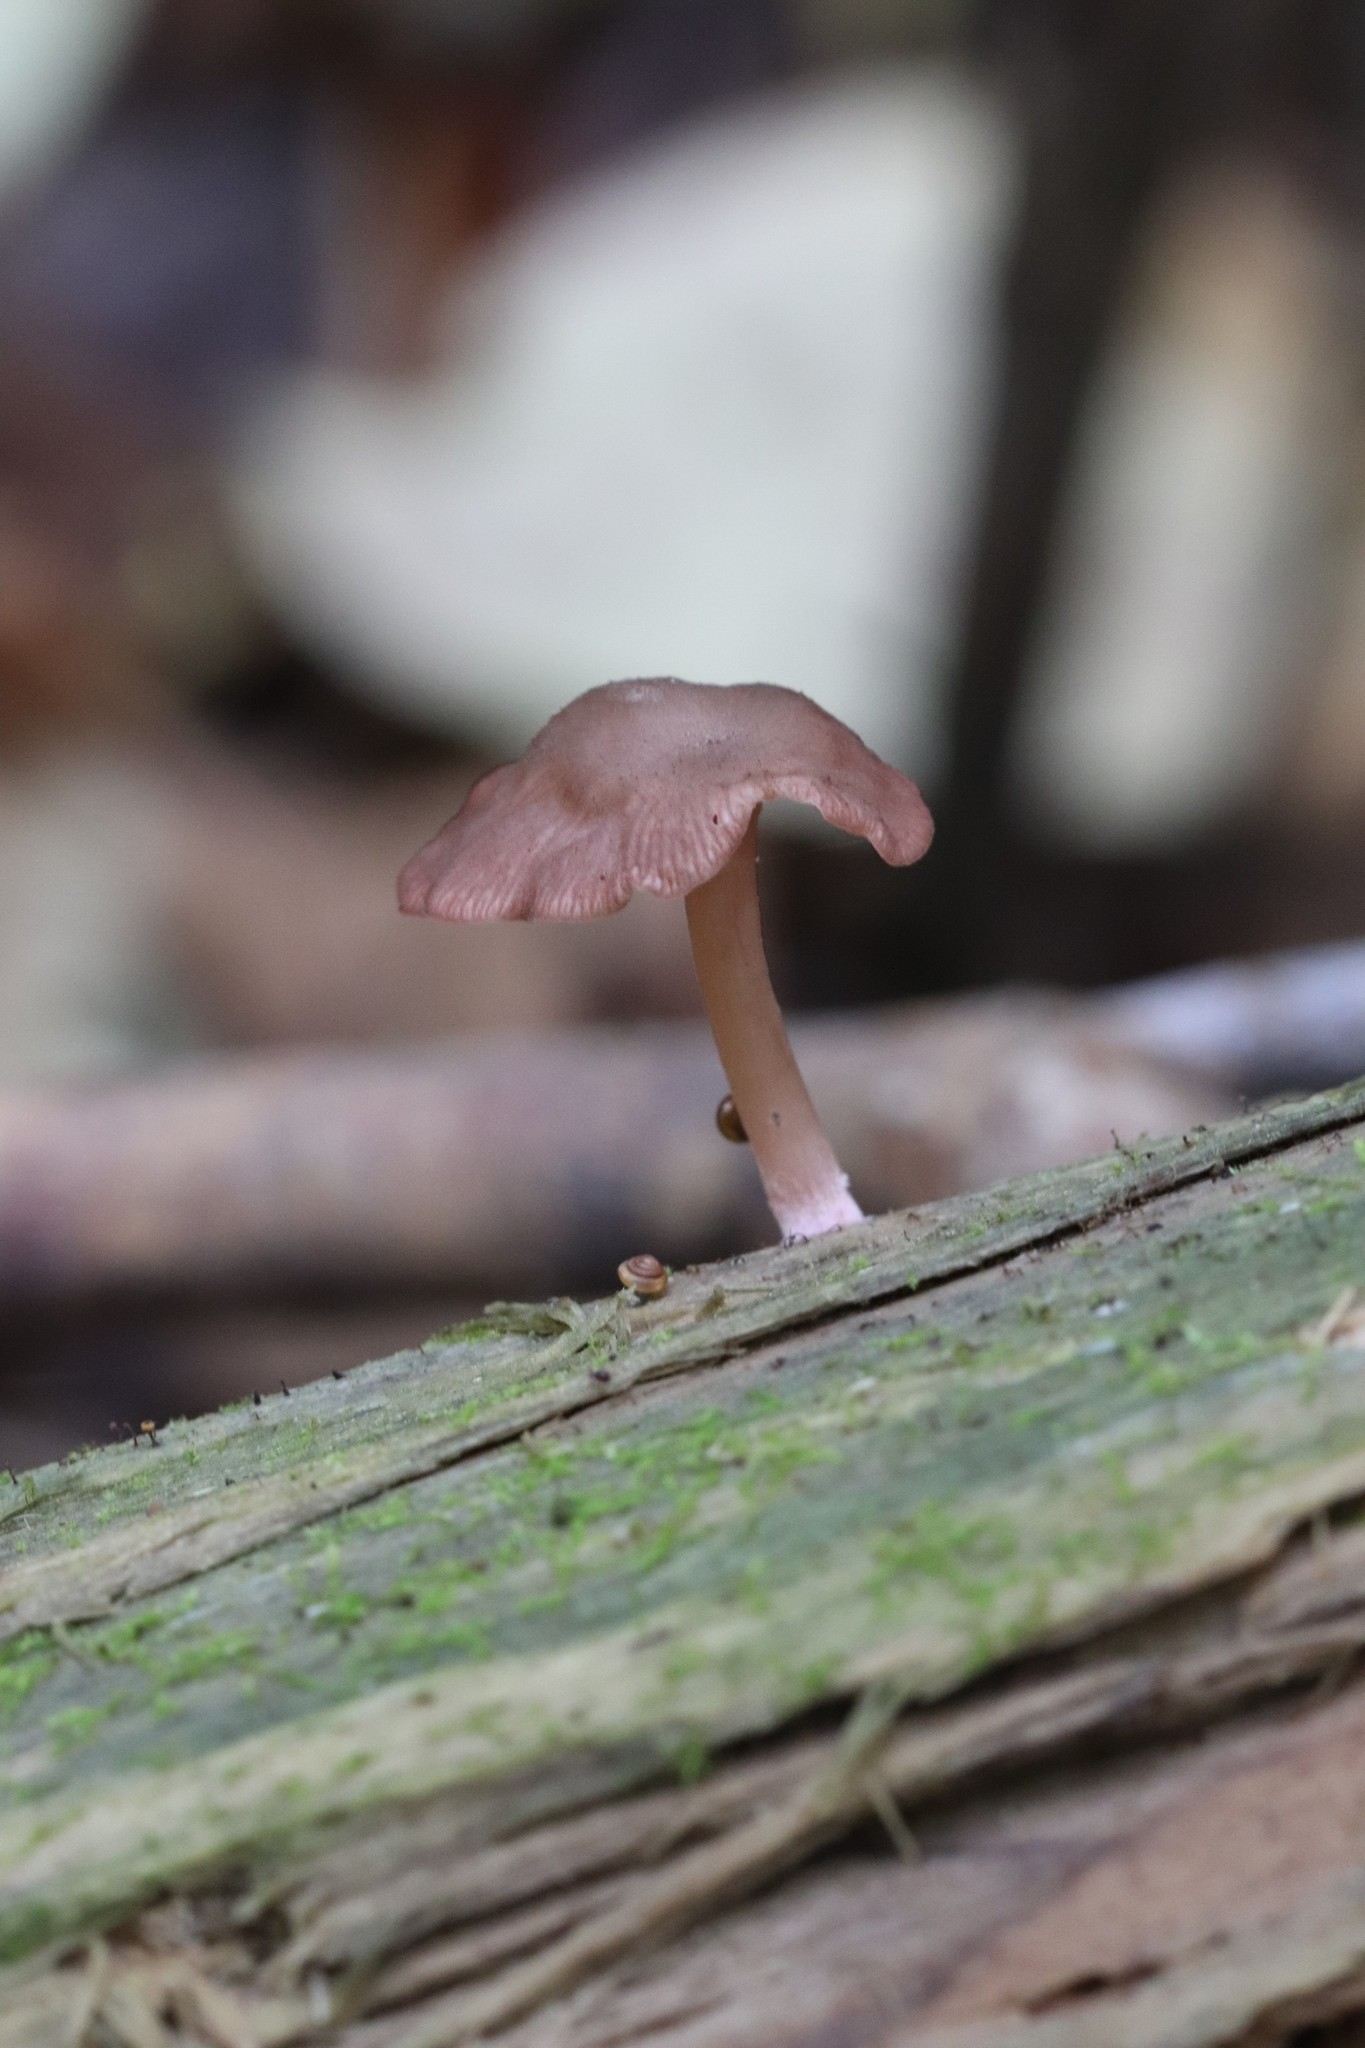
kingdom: Fungi
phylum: Basidiomycota
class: Agaricomycetes
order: Agaricales
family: Hygrophoraceae
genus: Arrhenia
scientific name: Arrhenia discorosea
